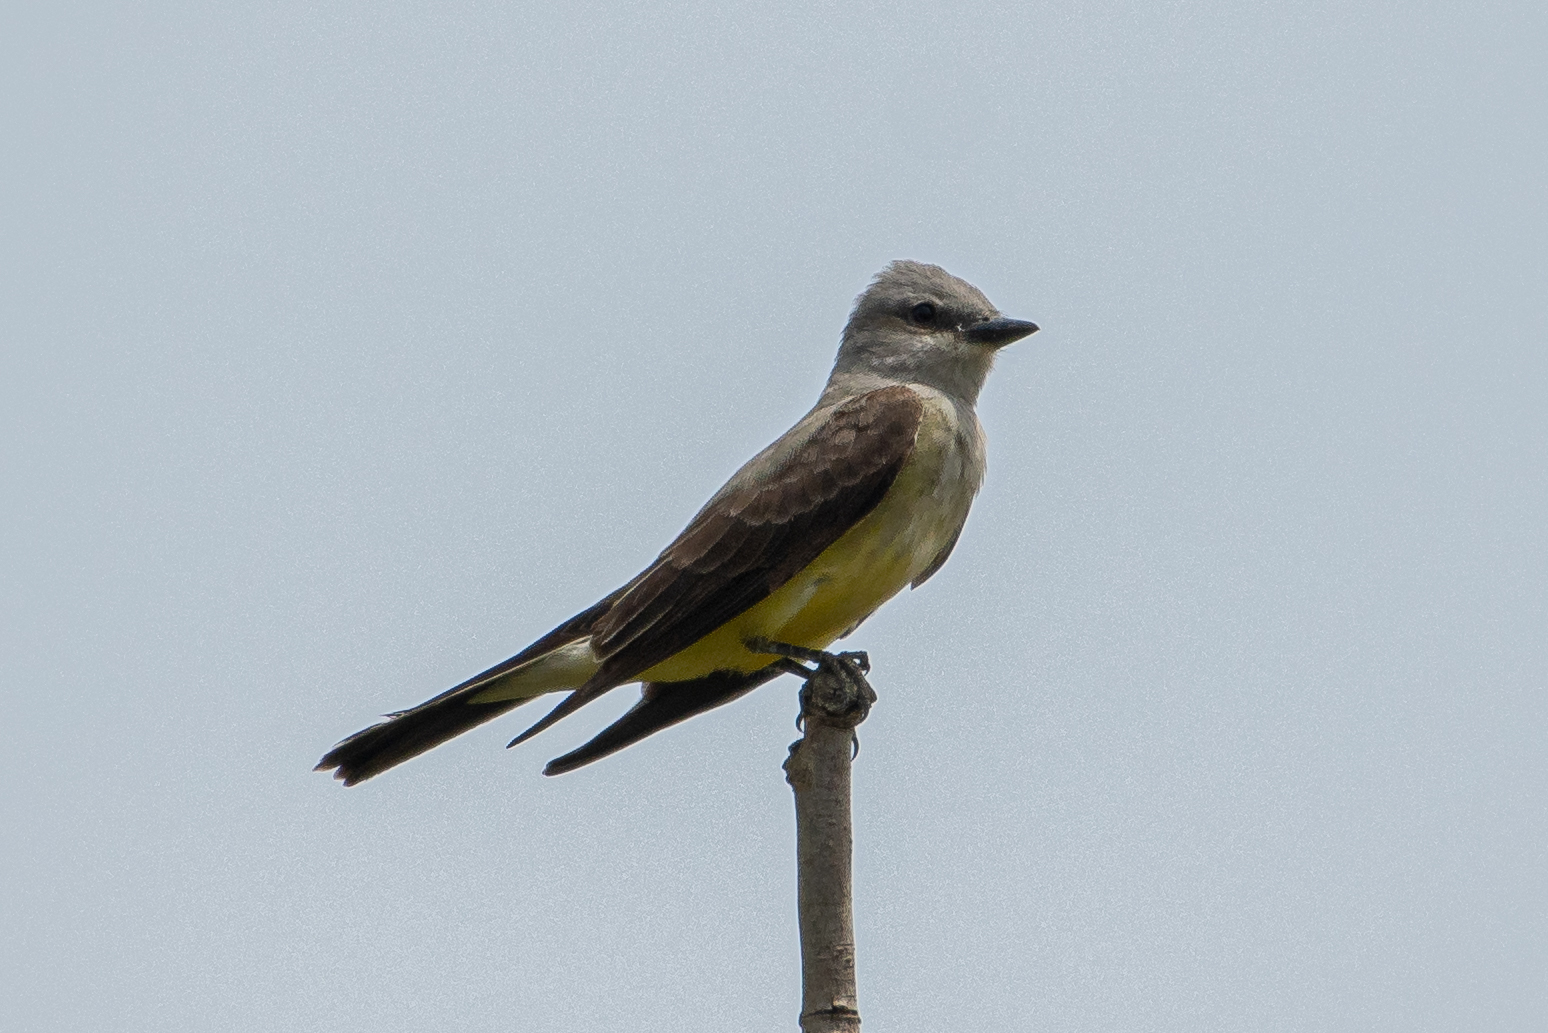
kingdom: Animalia
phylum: Chordata
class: Aves
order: Passeriformes
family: Tyrannidae
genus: Tyrannus
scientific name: Tyrannus verticalis
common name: Western kingbird
